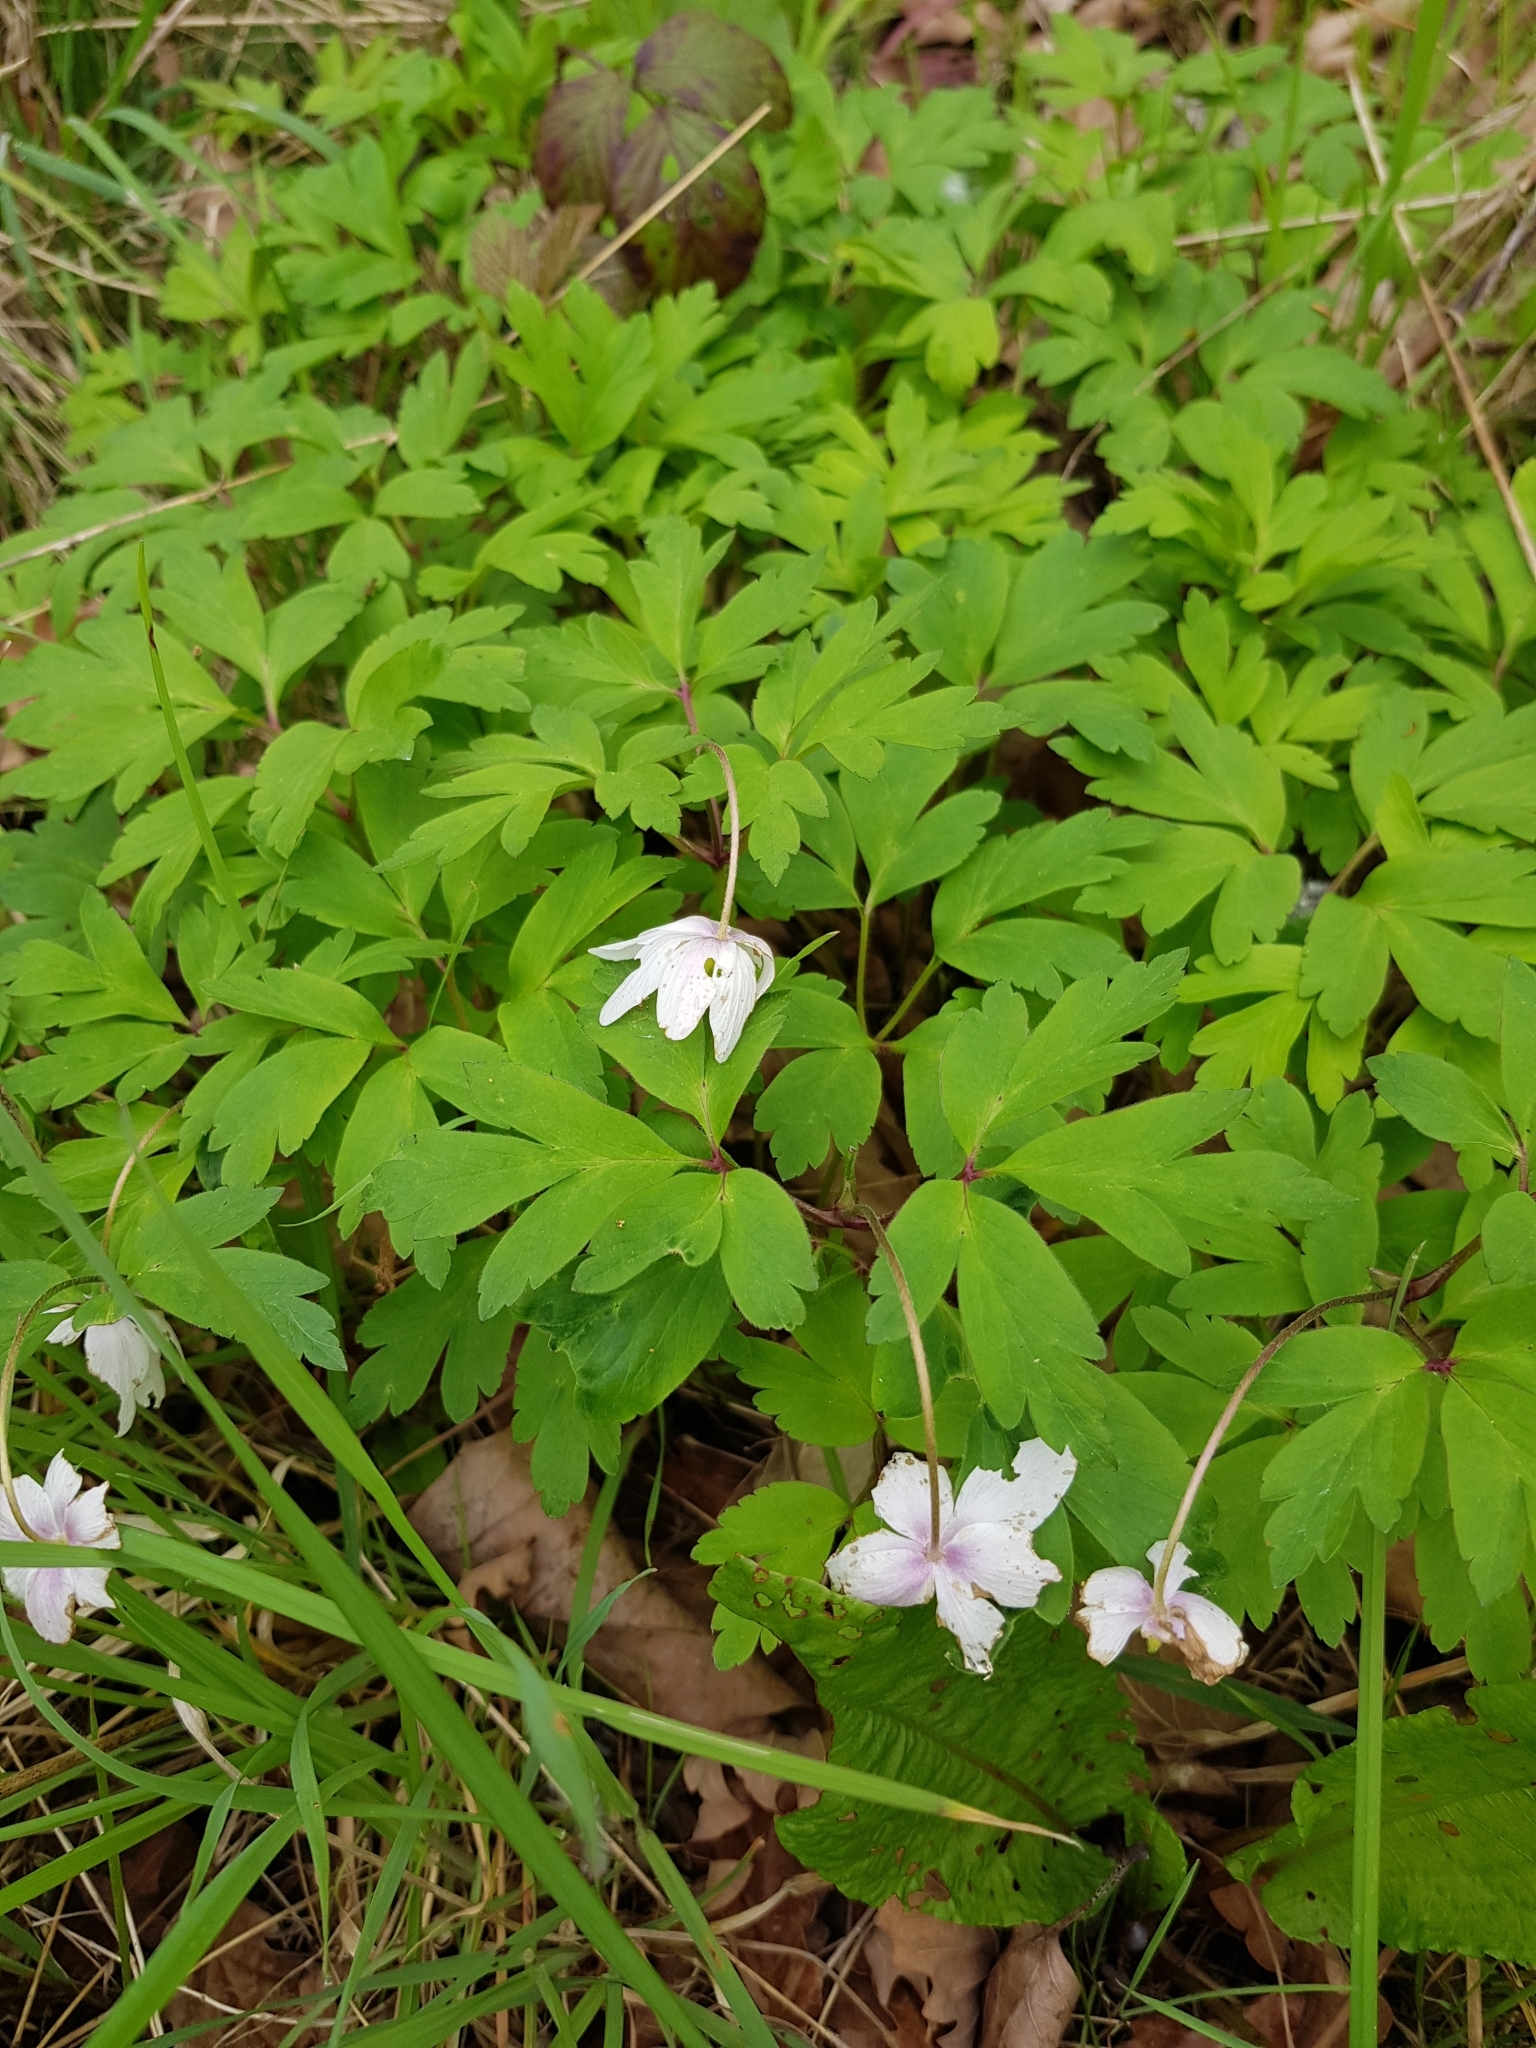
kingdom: Plantae
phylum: Tracheophyta
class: Magnoliopsida
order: Ranunculales
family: Ranunculaceae
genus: Anemone
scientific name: Anemone nemorosa
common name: Wood anemone
